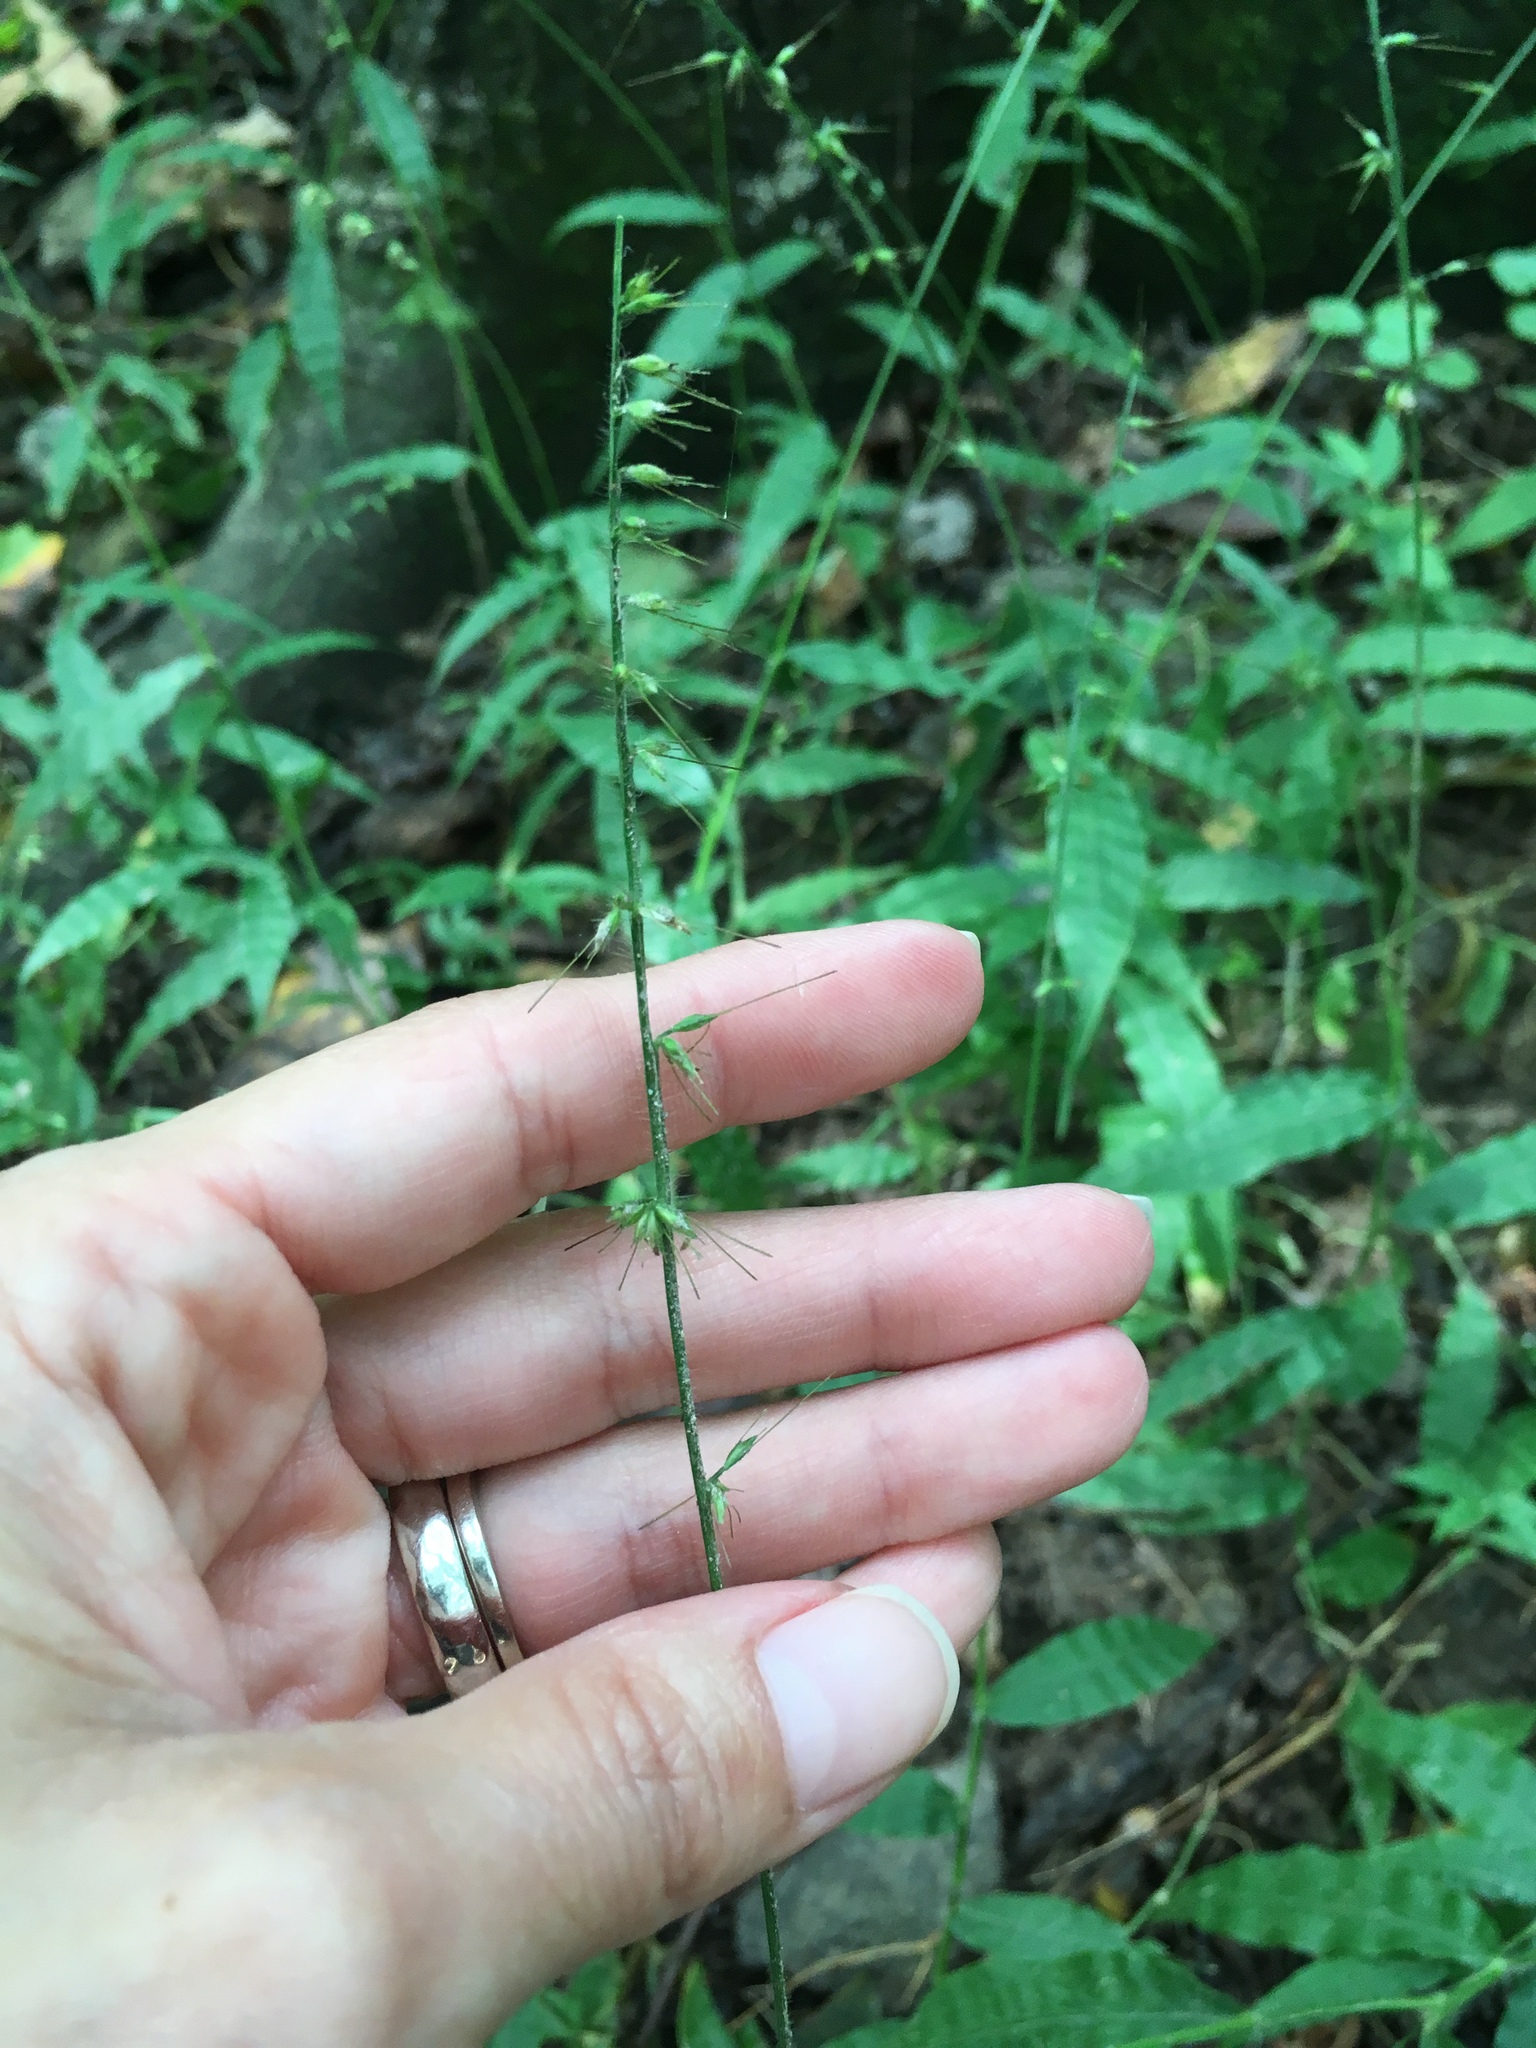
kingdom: Plantae
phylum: Tracheophyta
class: Liliopsida
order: Poales
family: Poaceae
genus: Oplismenus
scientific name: Oplismenus undulatifolius
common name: Wavyleaf basketgrass
